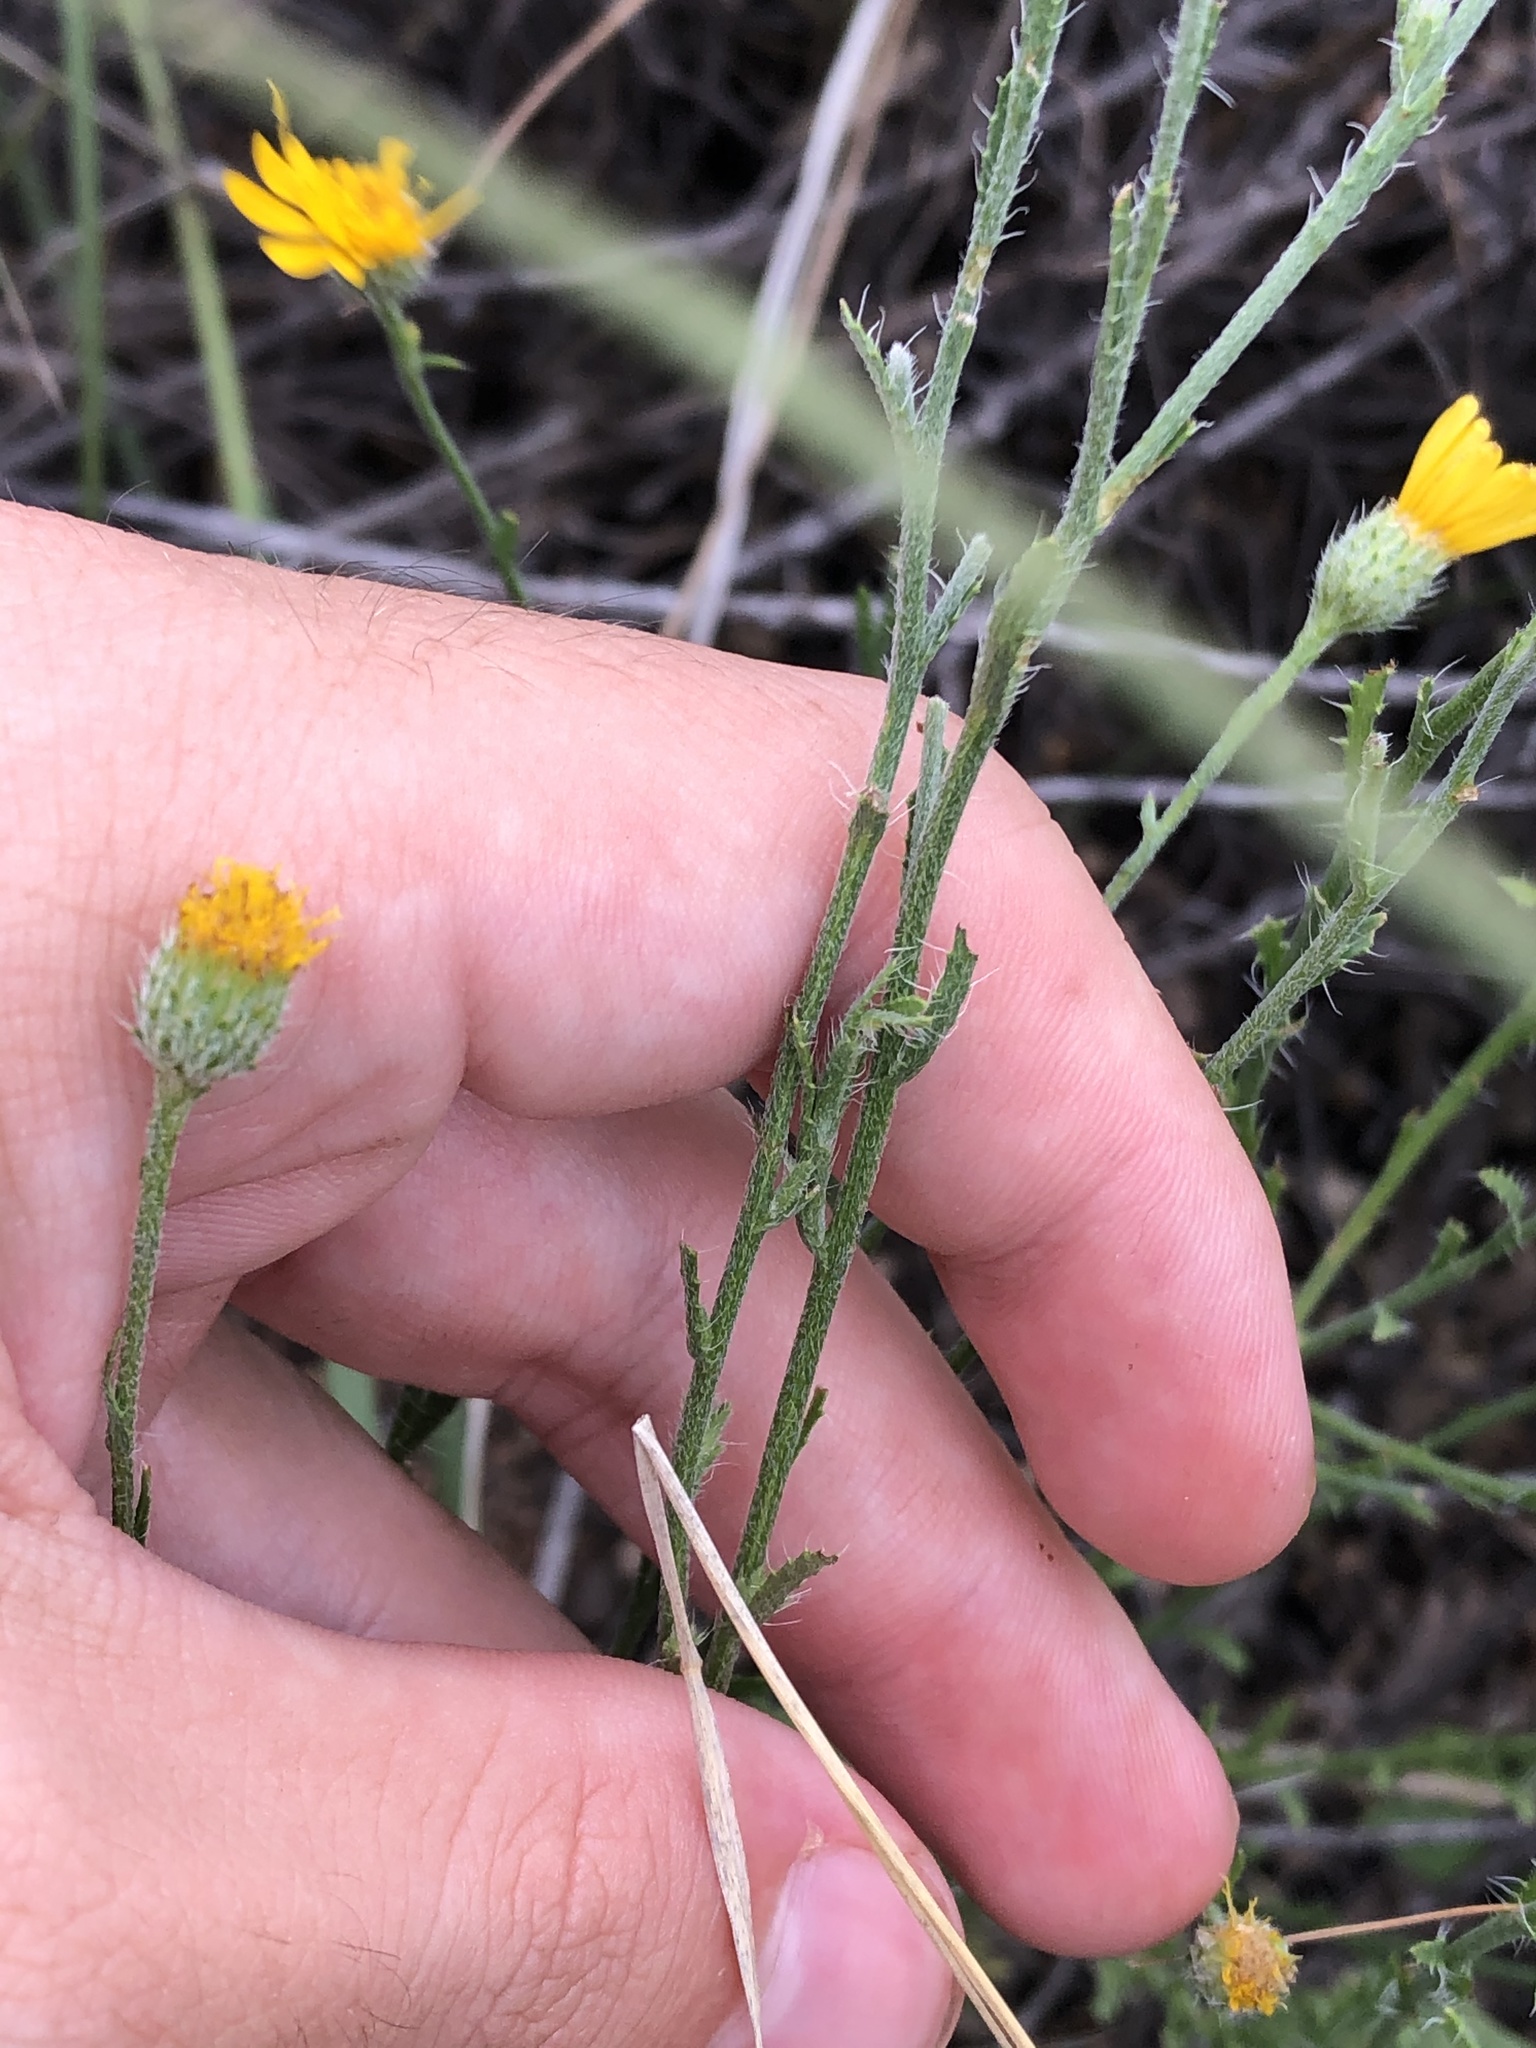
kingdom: Plantae
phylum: Tracheophyta
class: Magnoliopsida
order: Asterales
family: Asteraceae
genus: Xanthisma
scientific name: Xanthisma gracile
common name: Slender goldenweed
